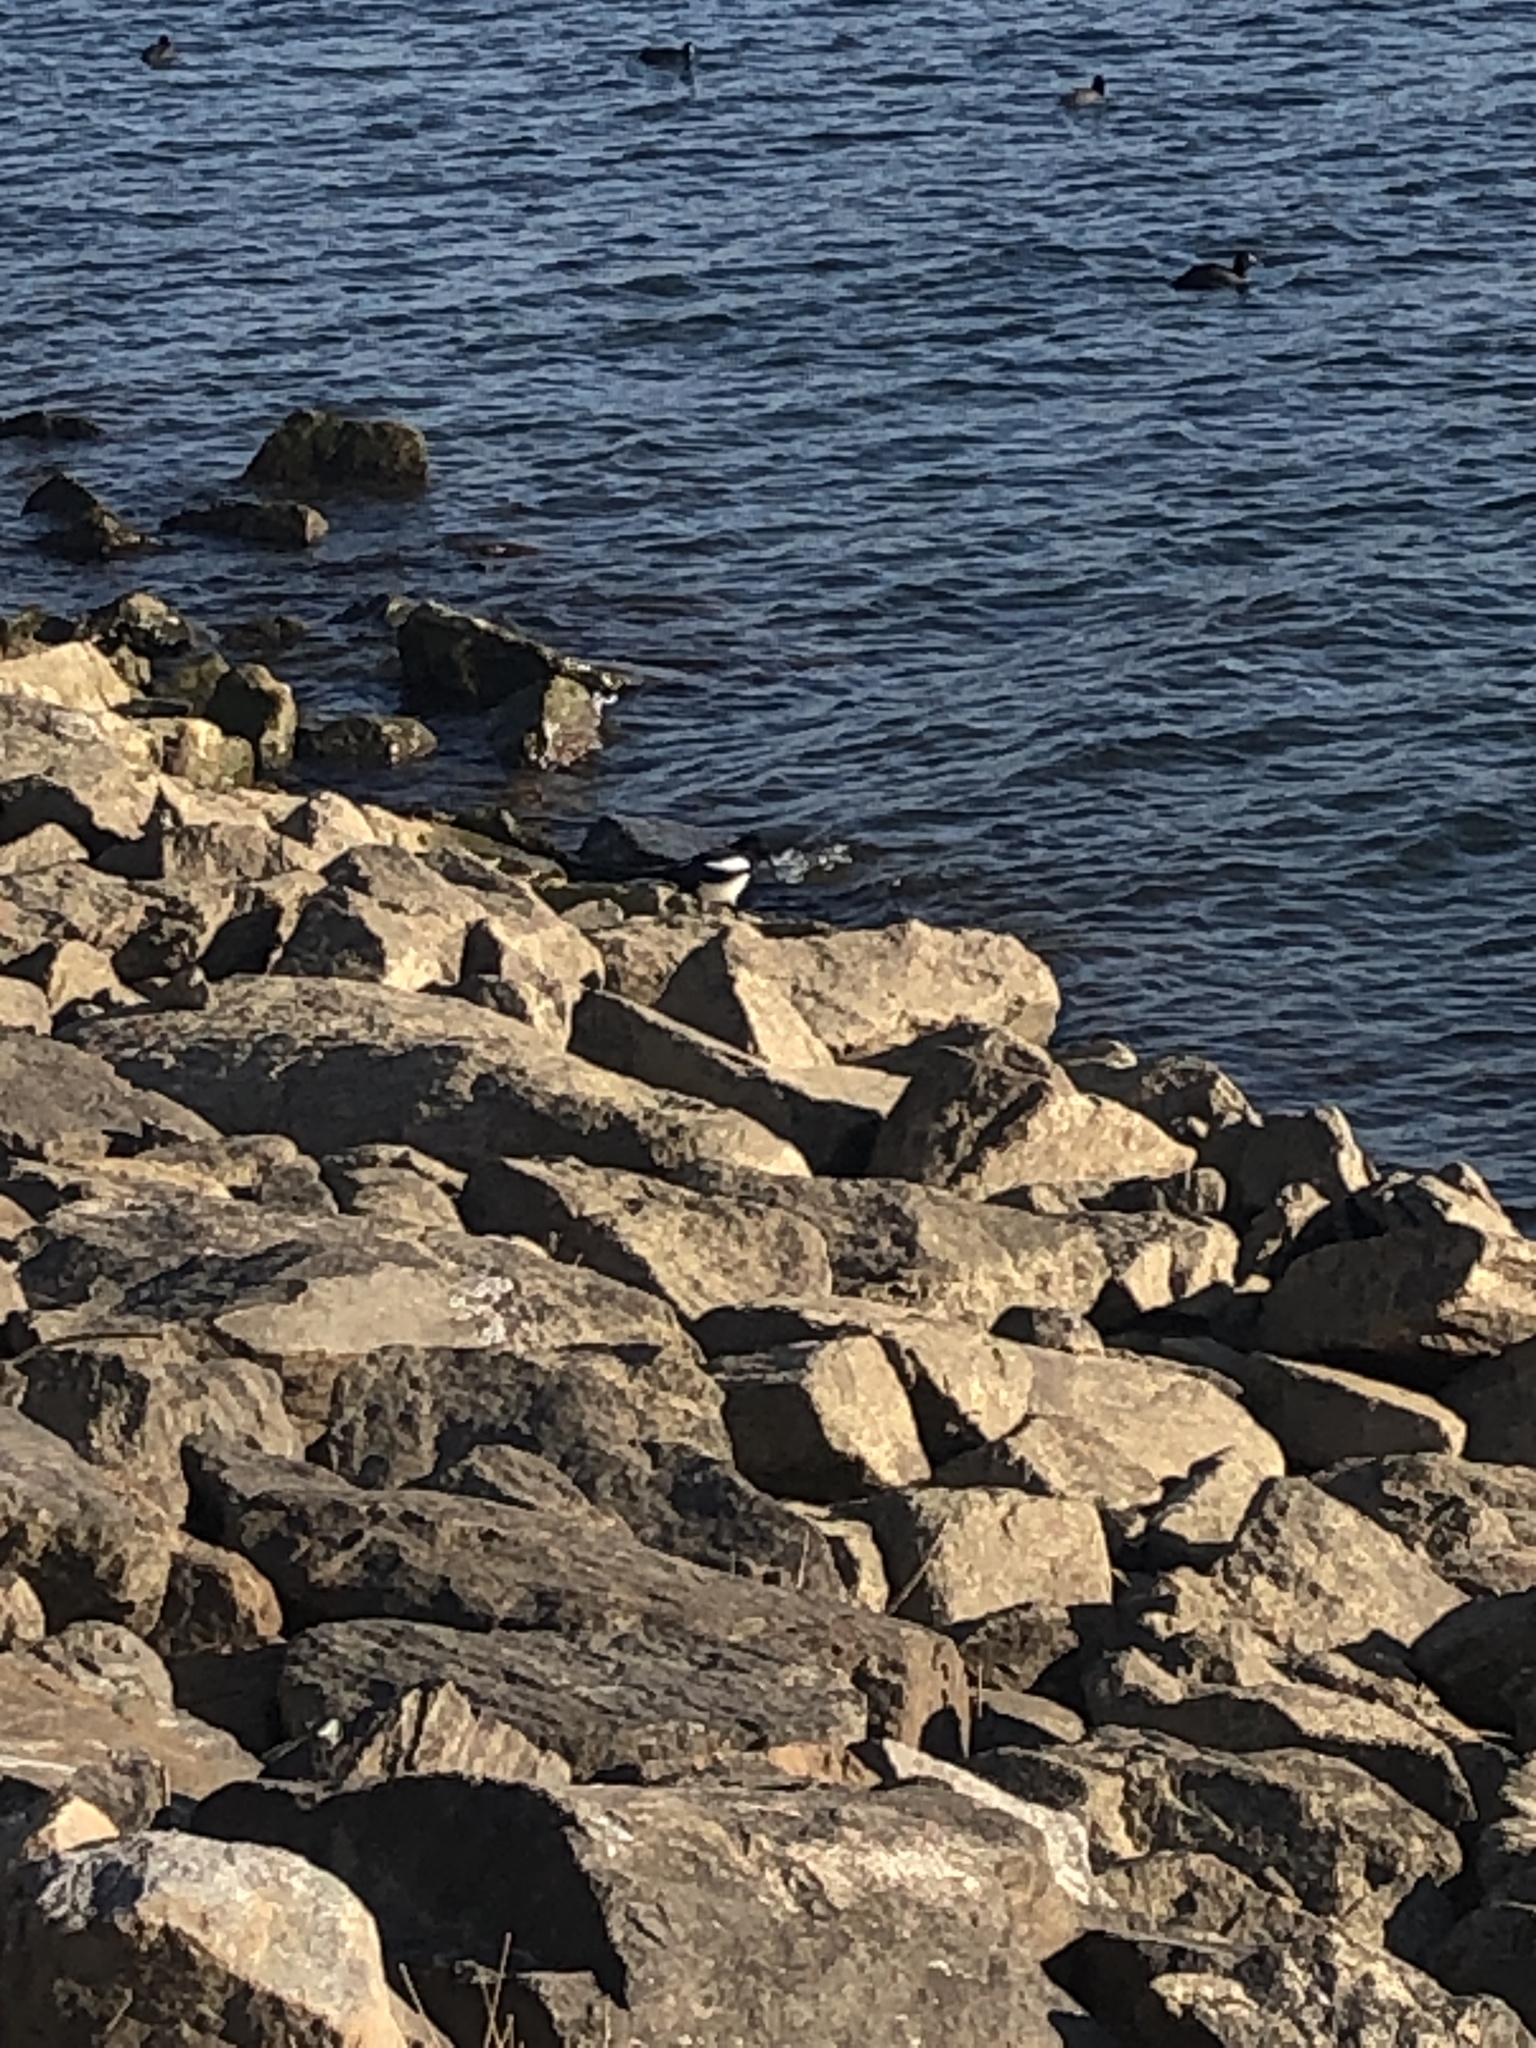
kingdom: Animalia
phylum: Chordata
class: Aves
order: Passeriformes
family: Corvidae
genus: Pica
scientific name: Pica serica
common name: Oriental magpie
